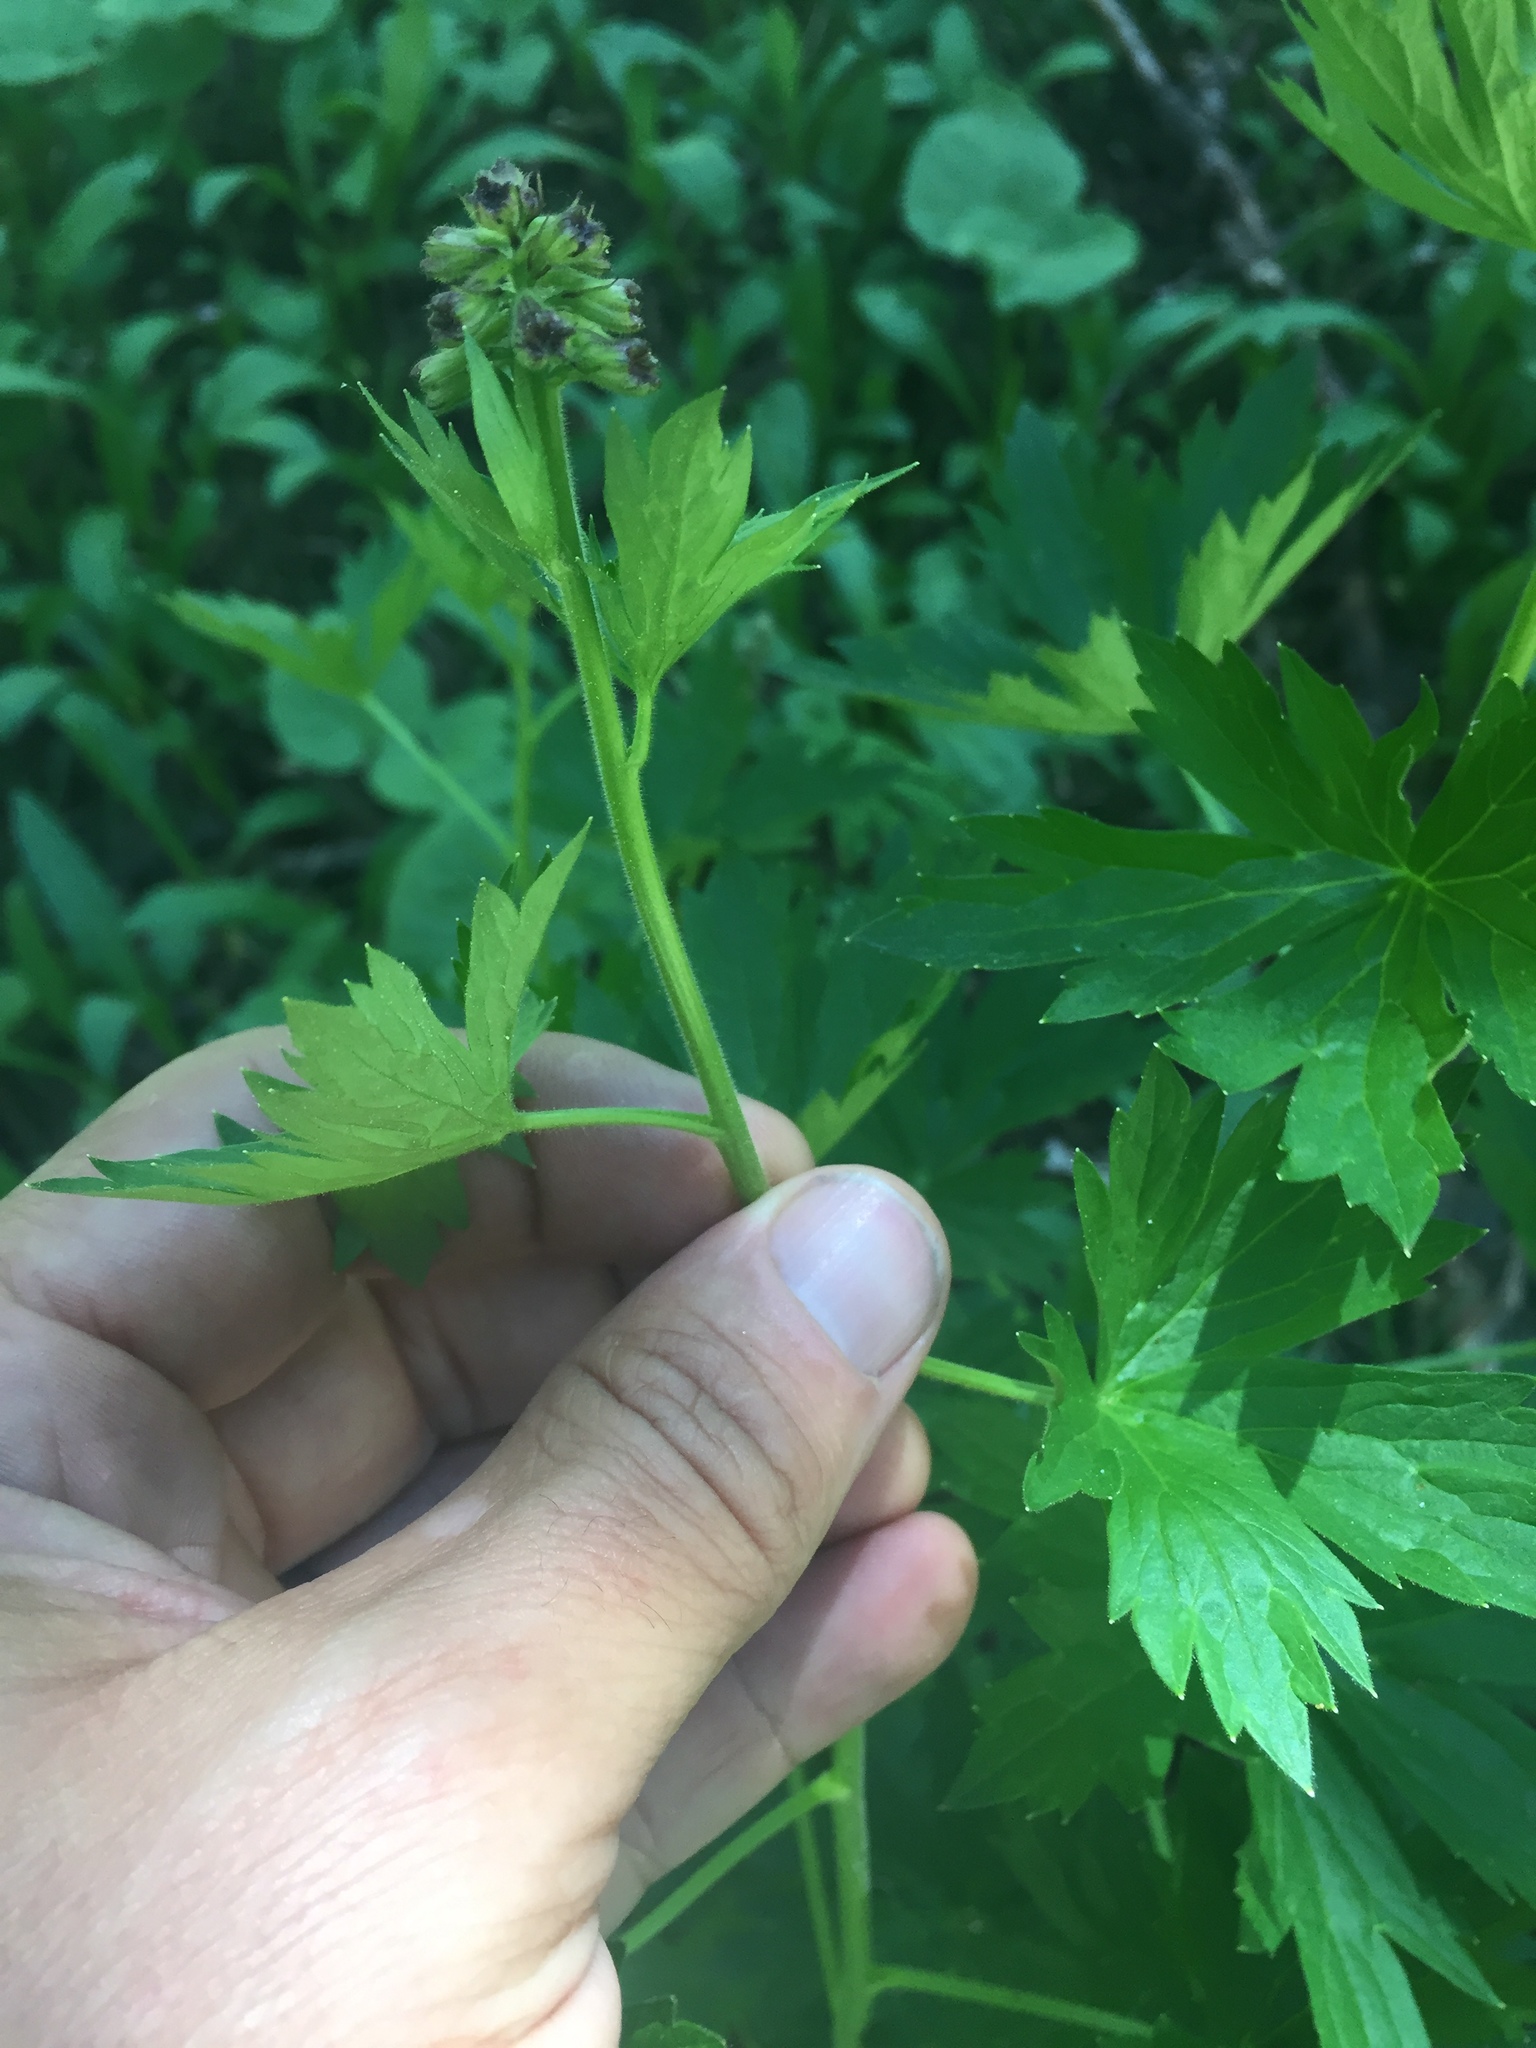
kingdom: Plantae
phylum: Tracheophyta
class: Magnoliopsida
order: Ranunculales
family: Ranunculaceae
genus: Delphinium
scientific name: Delphinium barbeyi
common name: Subalpine larkspur
